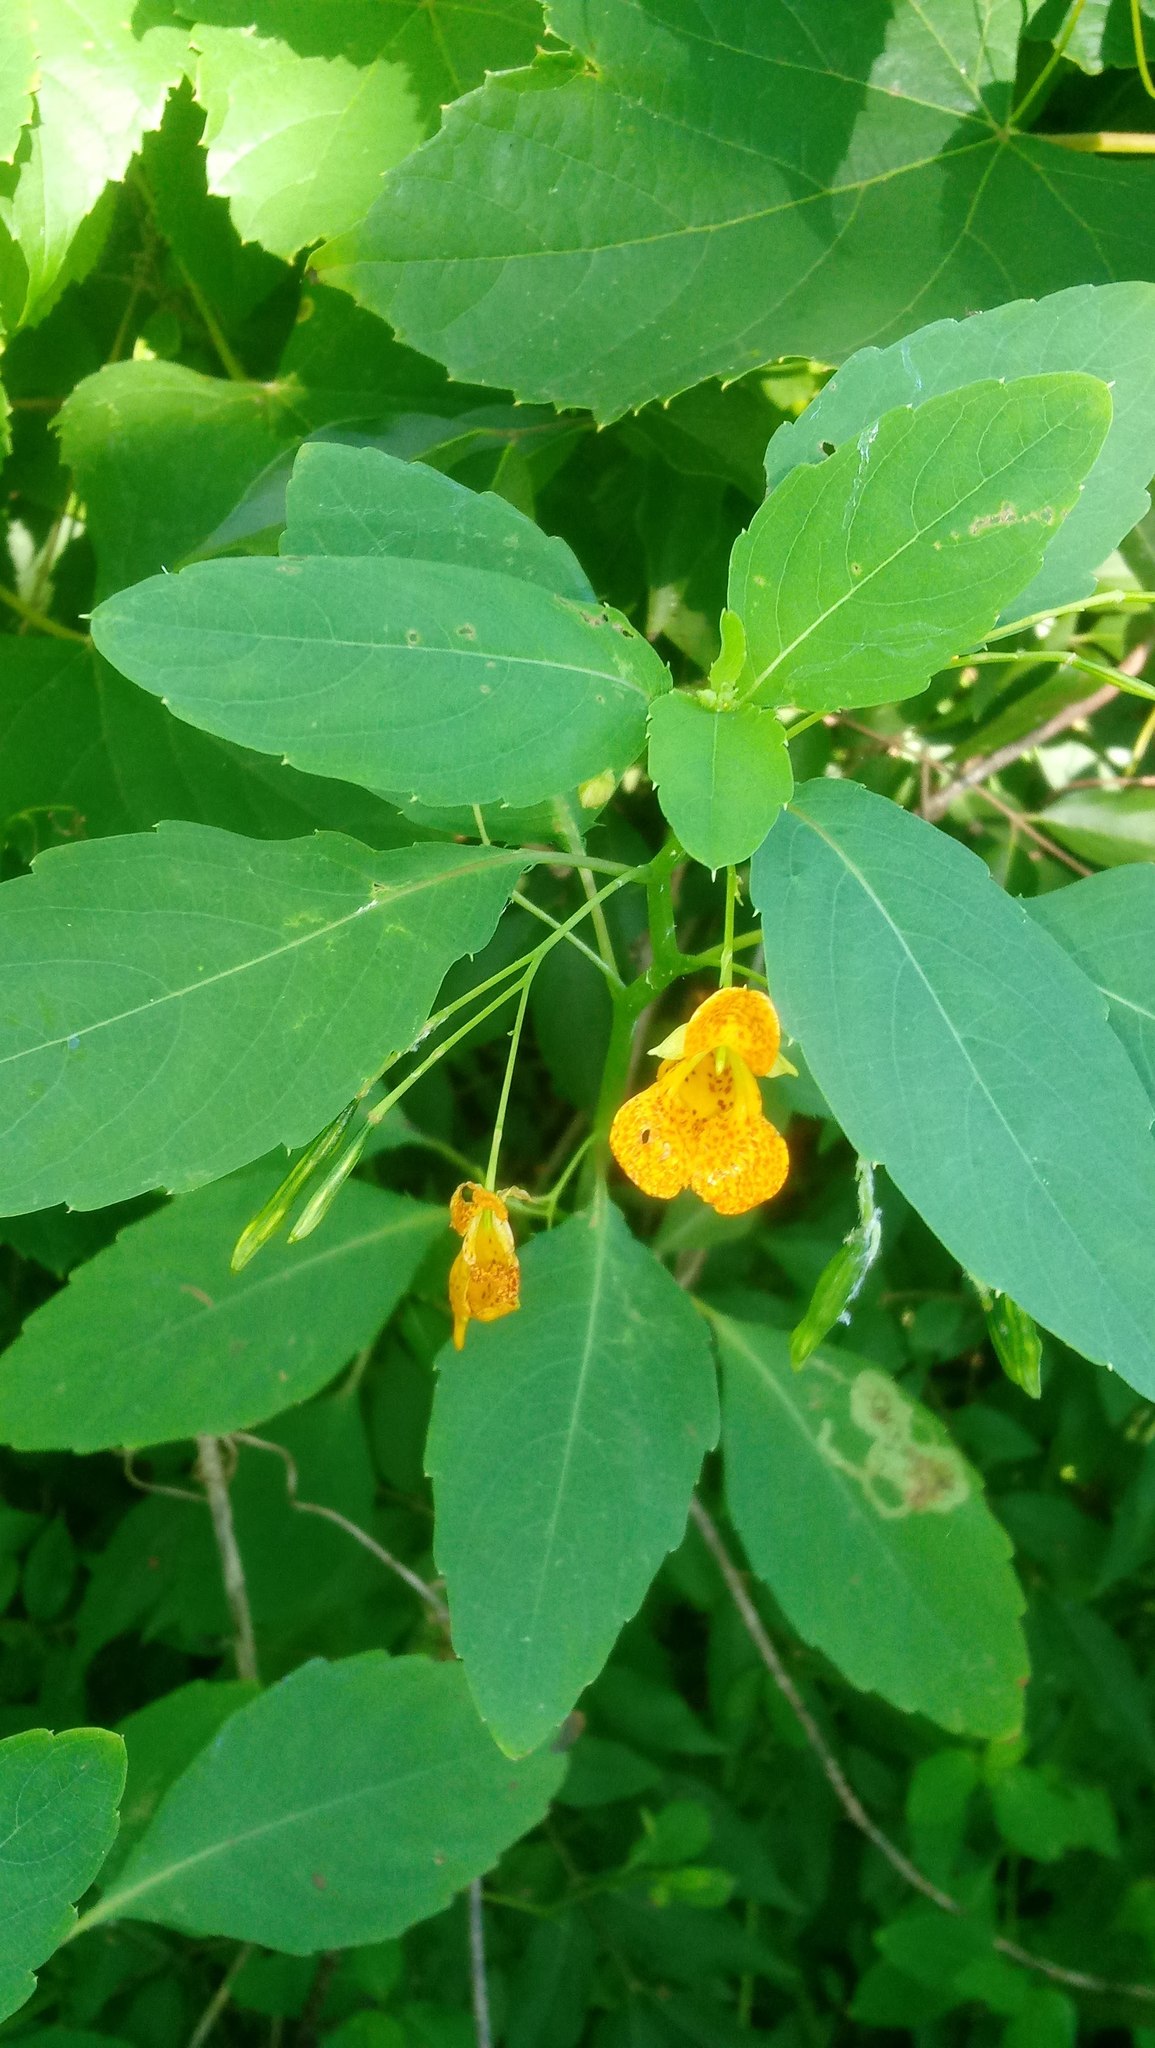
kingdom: Plantae
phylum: Tracheophyta
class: Magnoliopsida
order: Ericales
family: Balsaminaceae
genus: Impatiens
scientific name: Impatiens capensis
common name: Orange balsam
